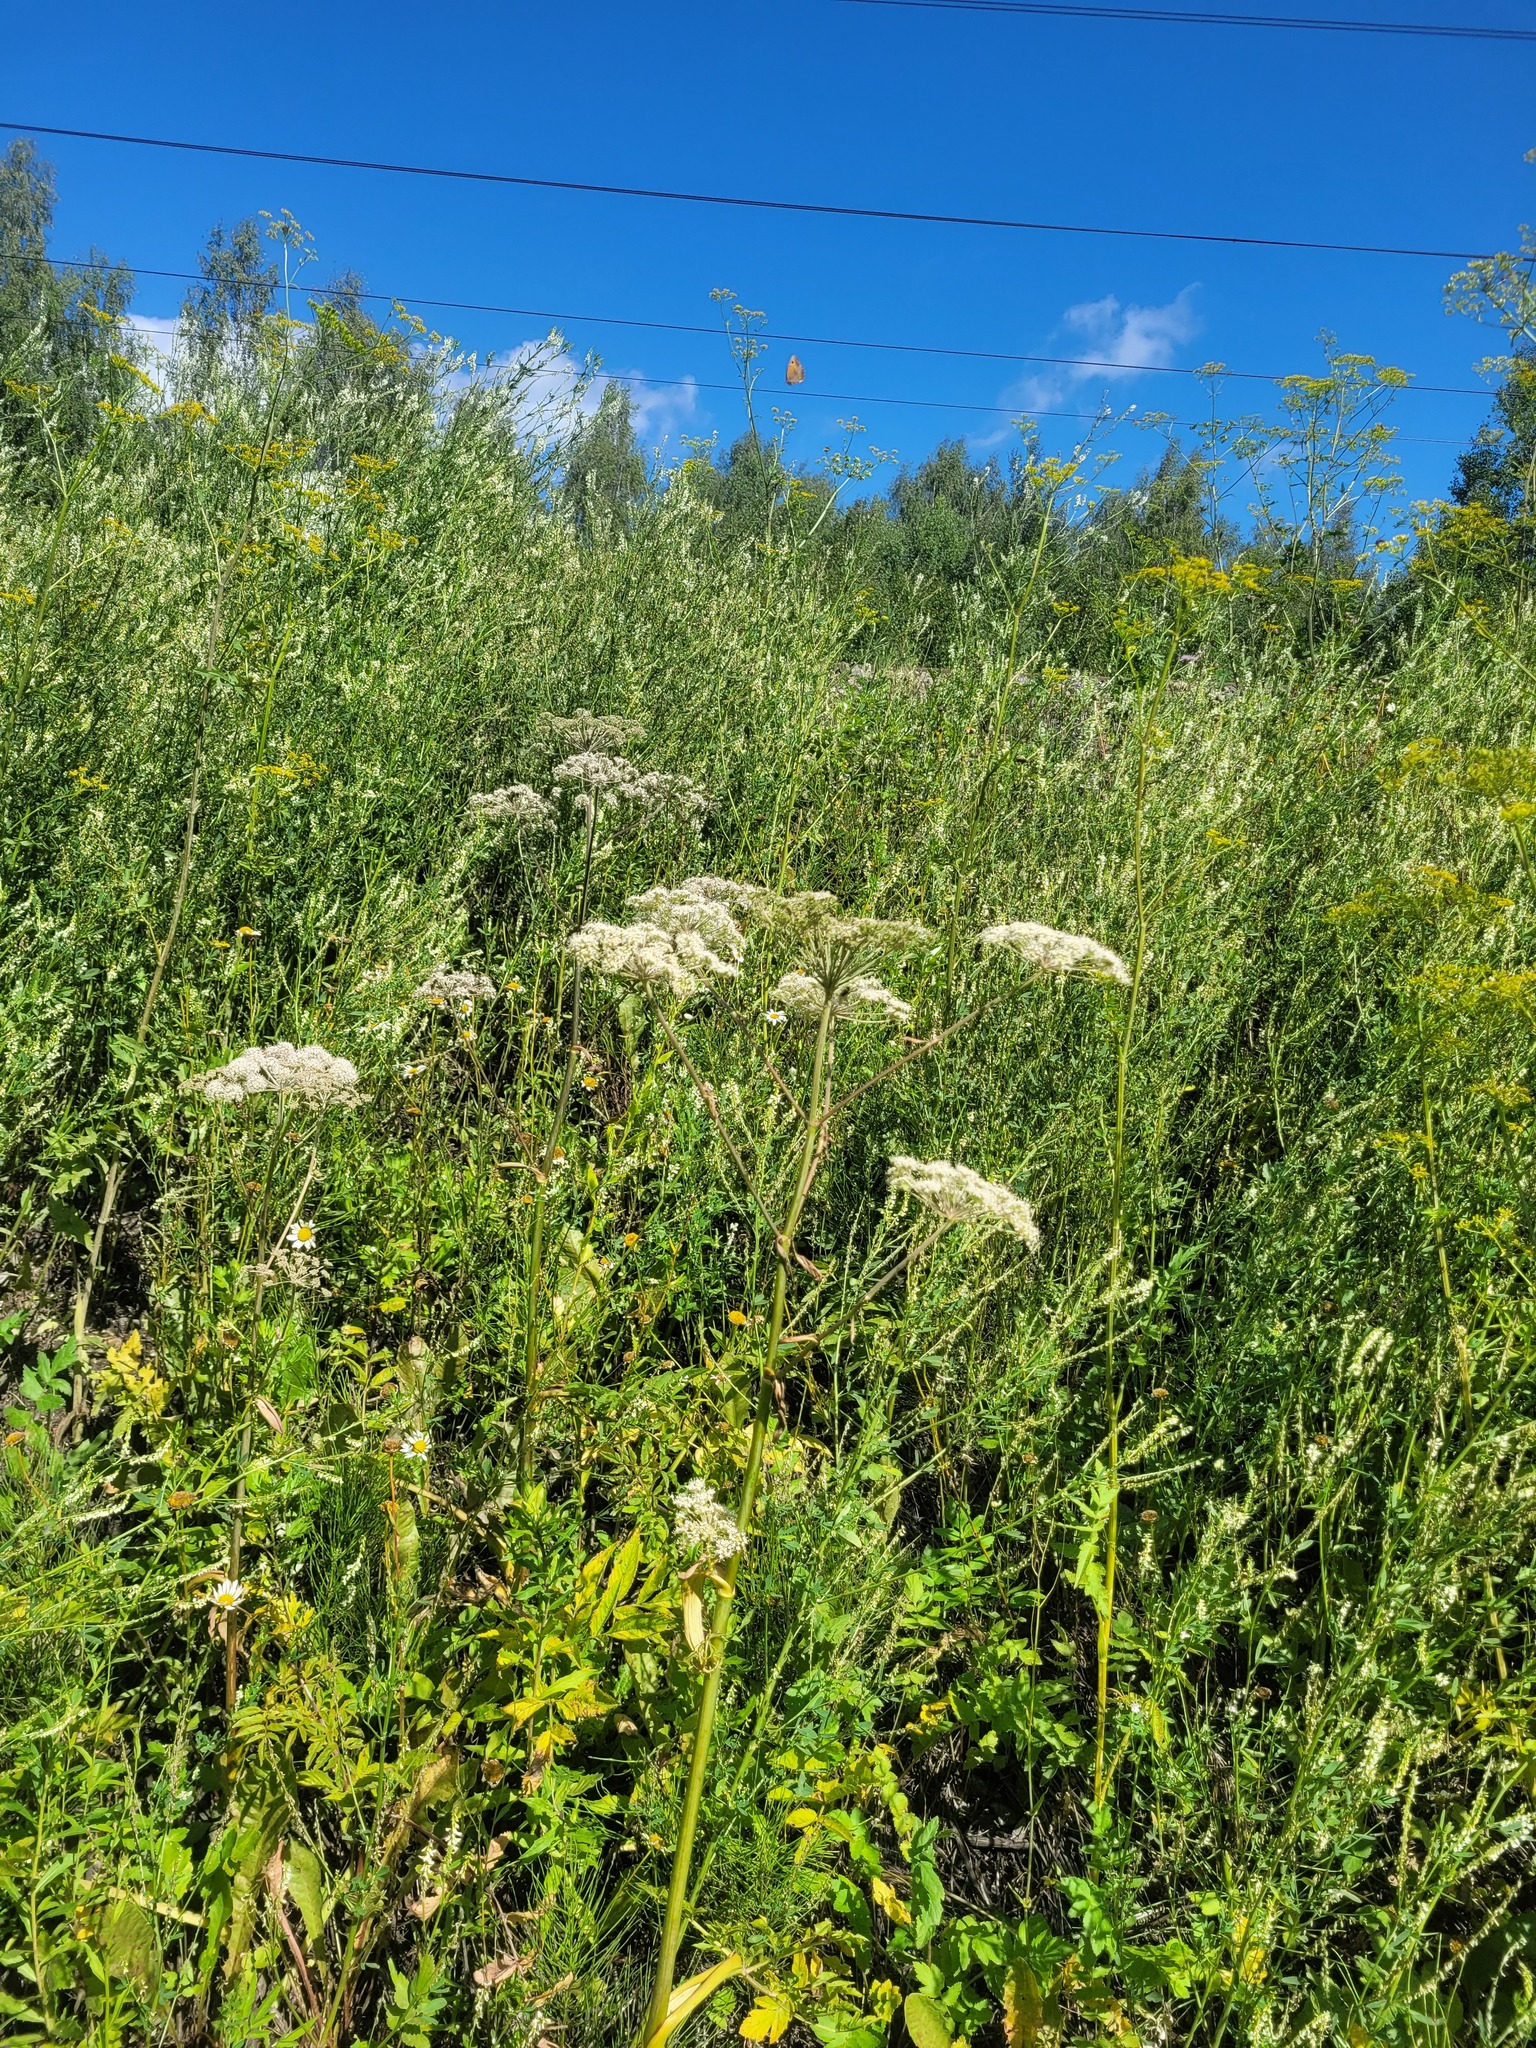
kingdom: Plantae
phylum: Tracheophyta
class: Magnoliopsida
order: Apiales
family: Apiaceae
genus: Angelica
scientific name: Angelica sylvestris
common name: Wild angelica
